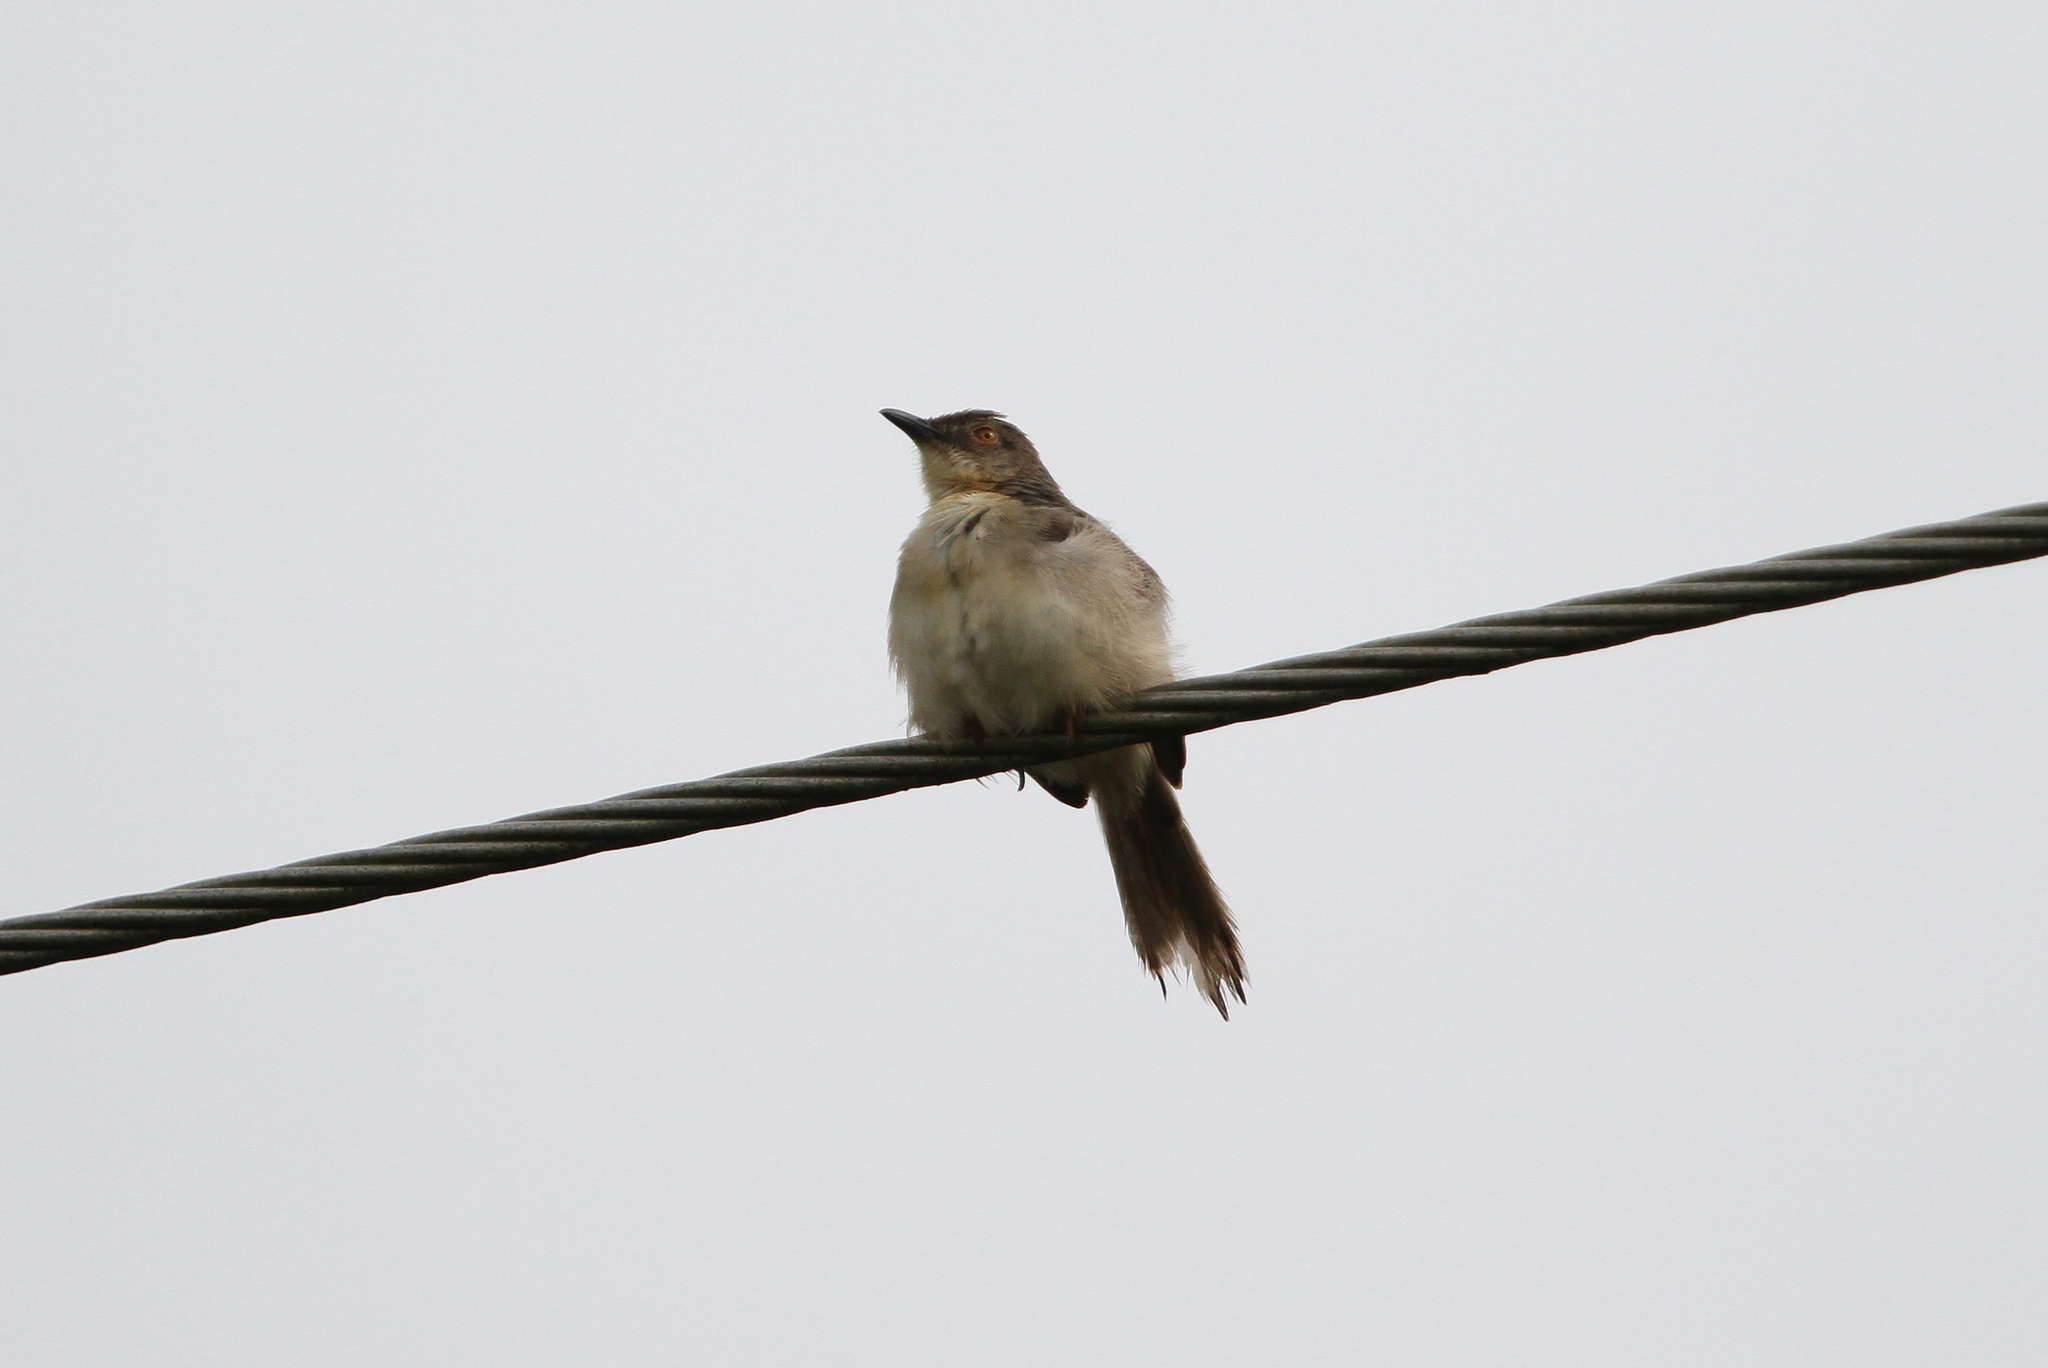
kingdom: Animalia
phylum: Chordata
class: Aves
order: Passeriformes
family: Cisticolidae
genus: Prinia
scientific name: Prinia sylvatica
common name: Jungle prinia
